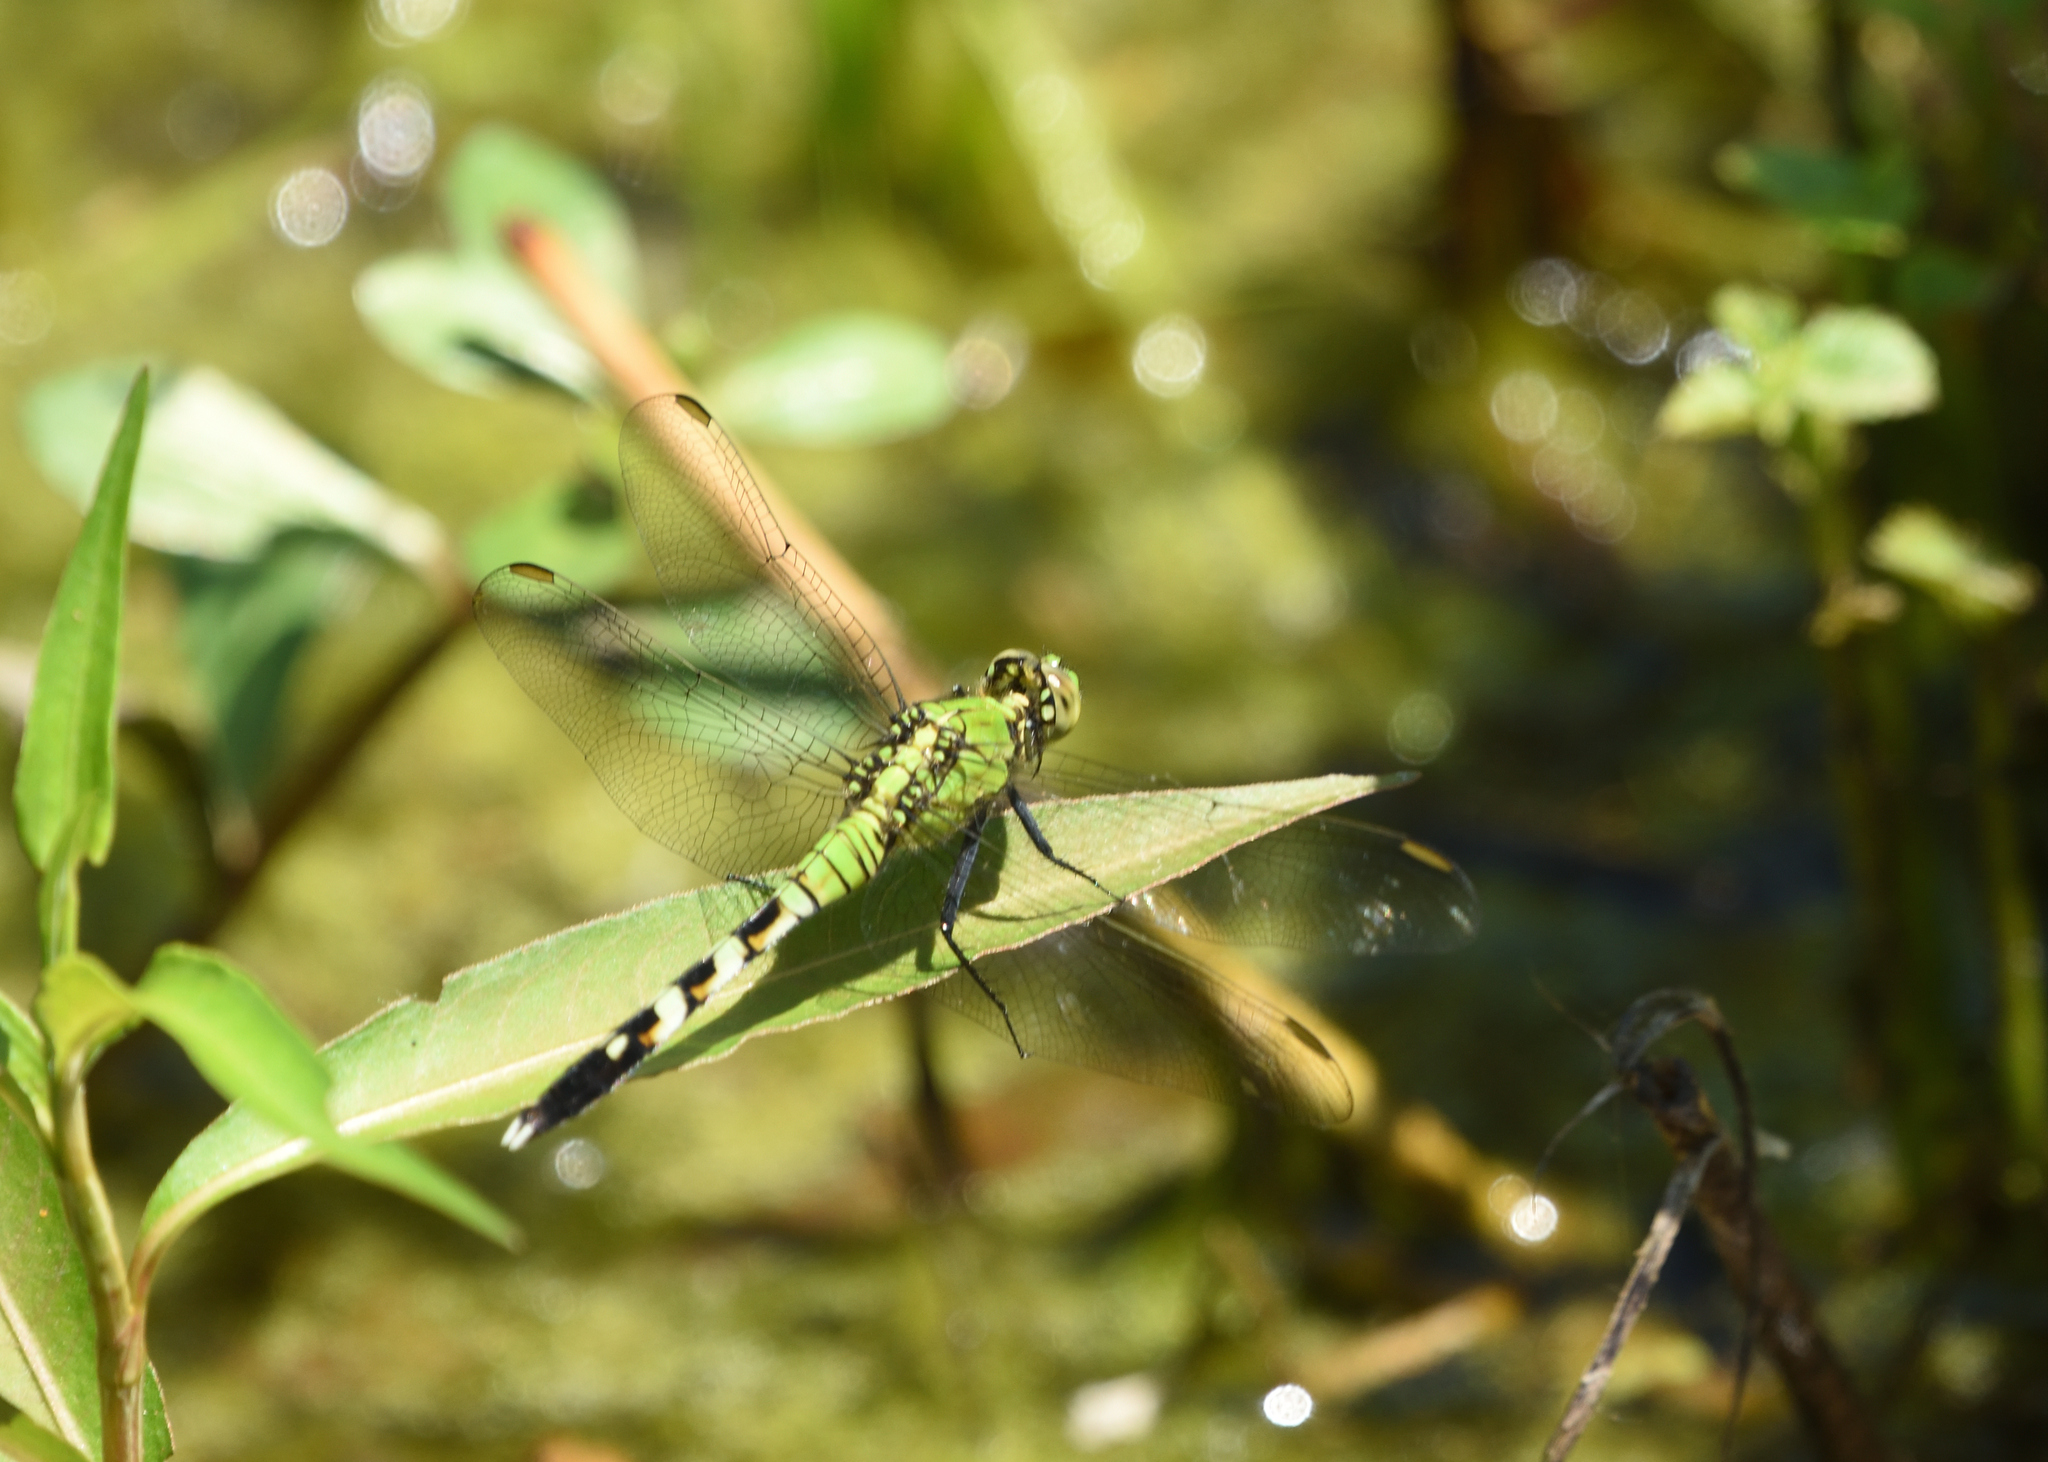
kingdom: Animalia
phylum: Arthropoda
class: Insecta
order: Odonata
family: Libellulidae
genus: Erythemis
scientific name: Erythemis simplicicollis
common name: Eastern pondhawk
